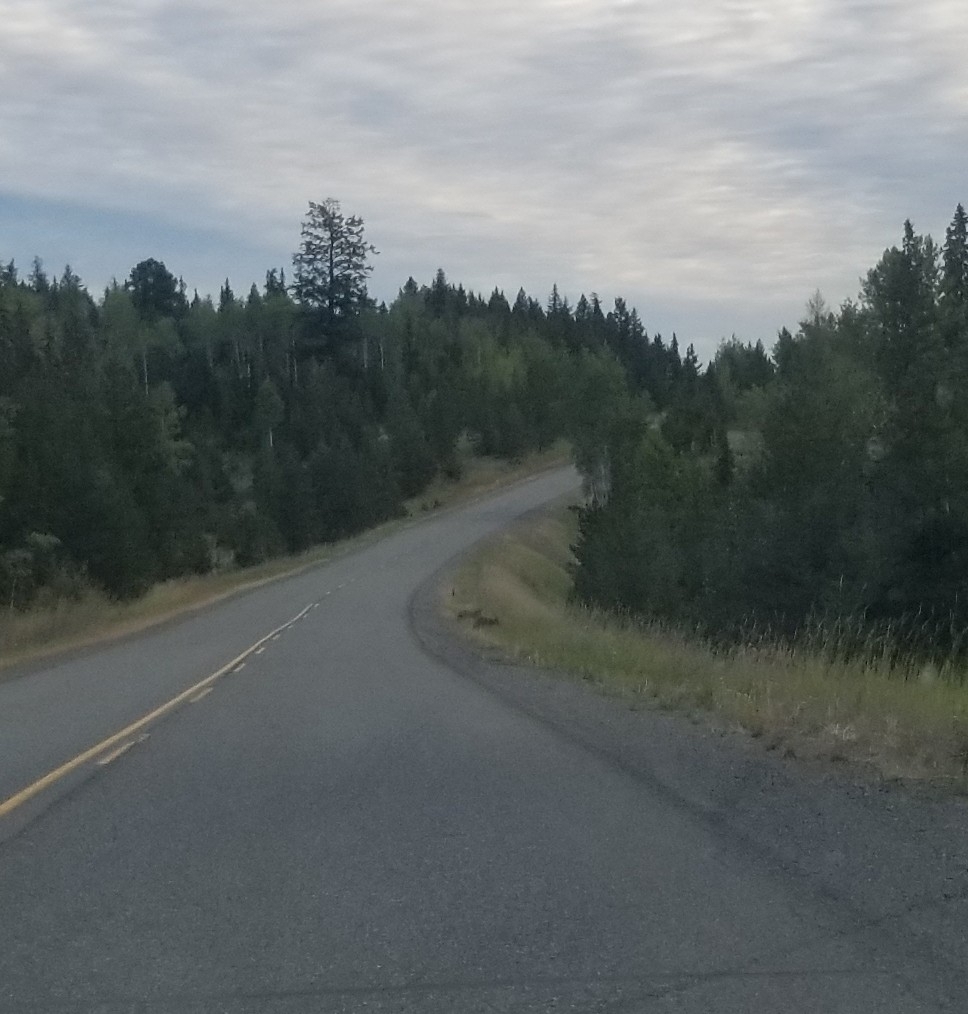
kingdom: Animalia
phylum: Chordata
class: Mammalia
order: Carnivora
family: Canidae
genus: Canis
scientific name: Canis latrans
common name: Coyote
